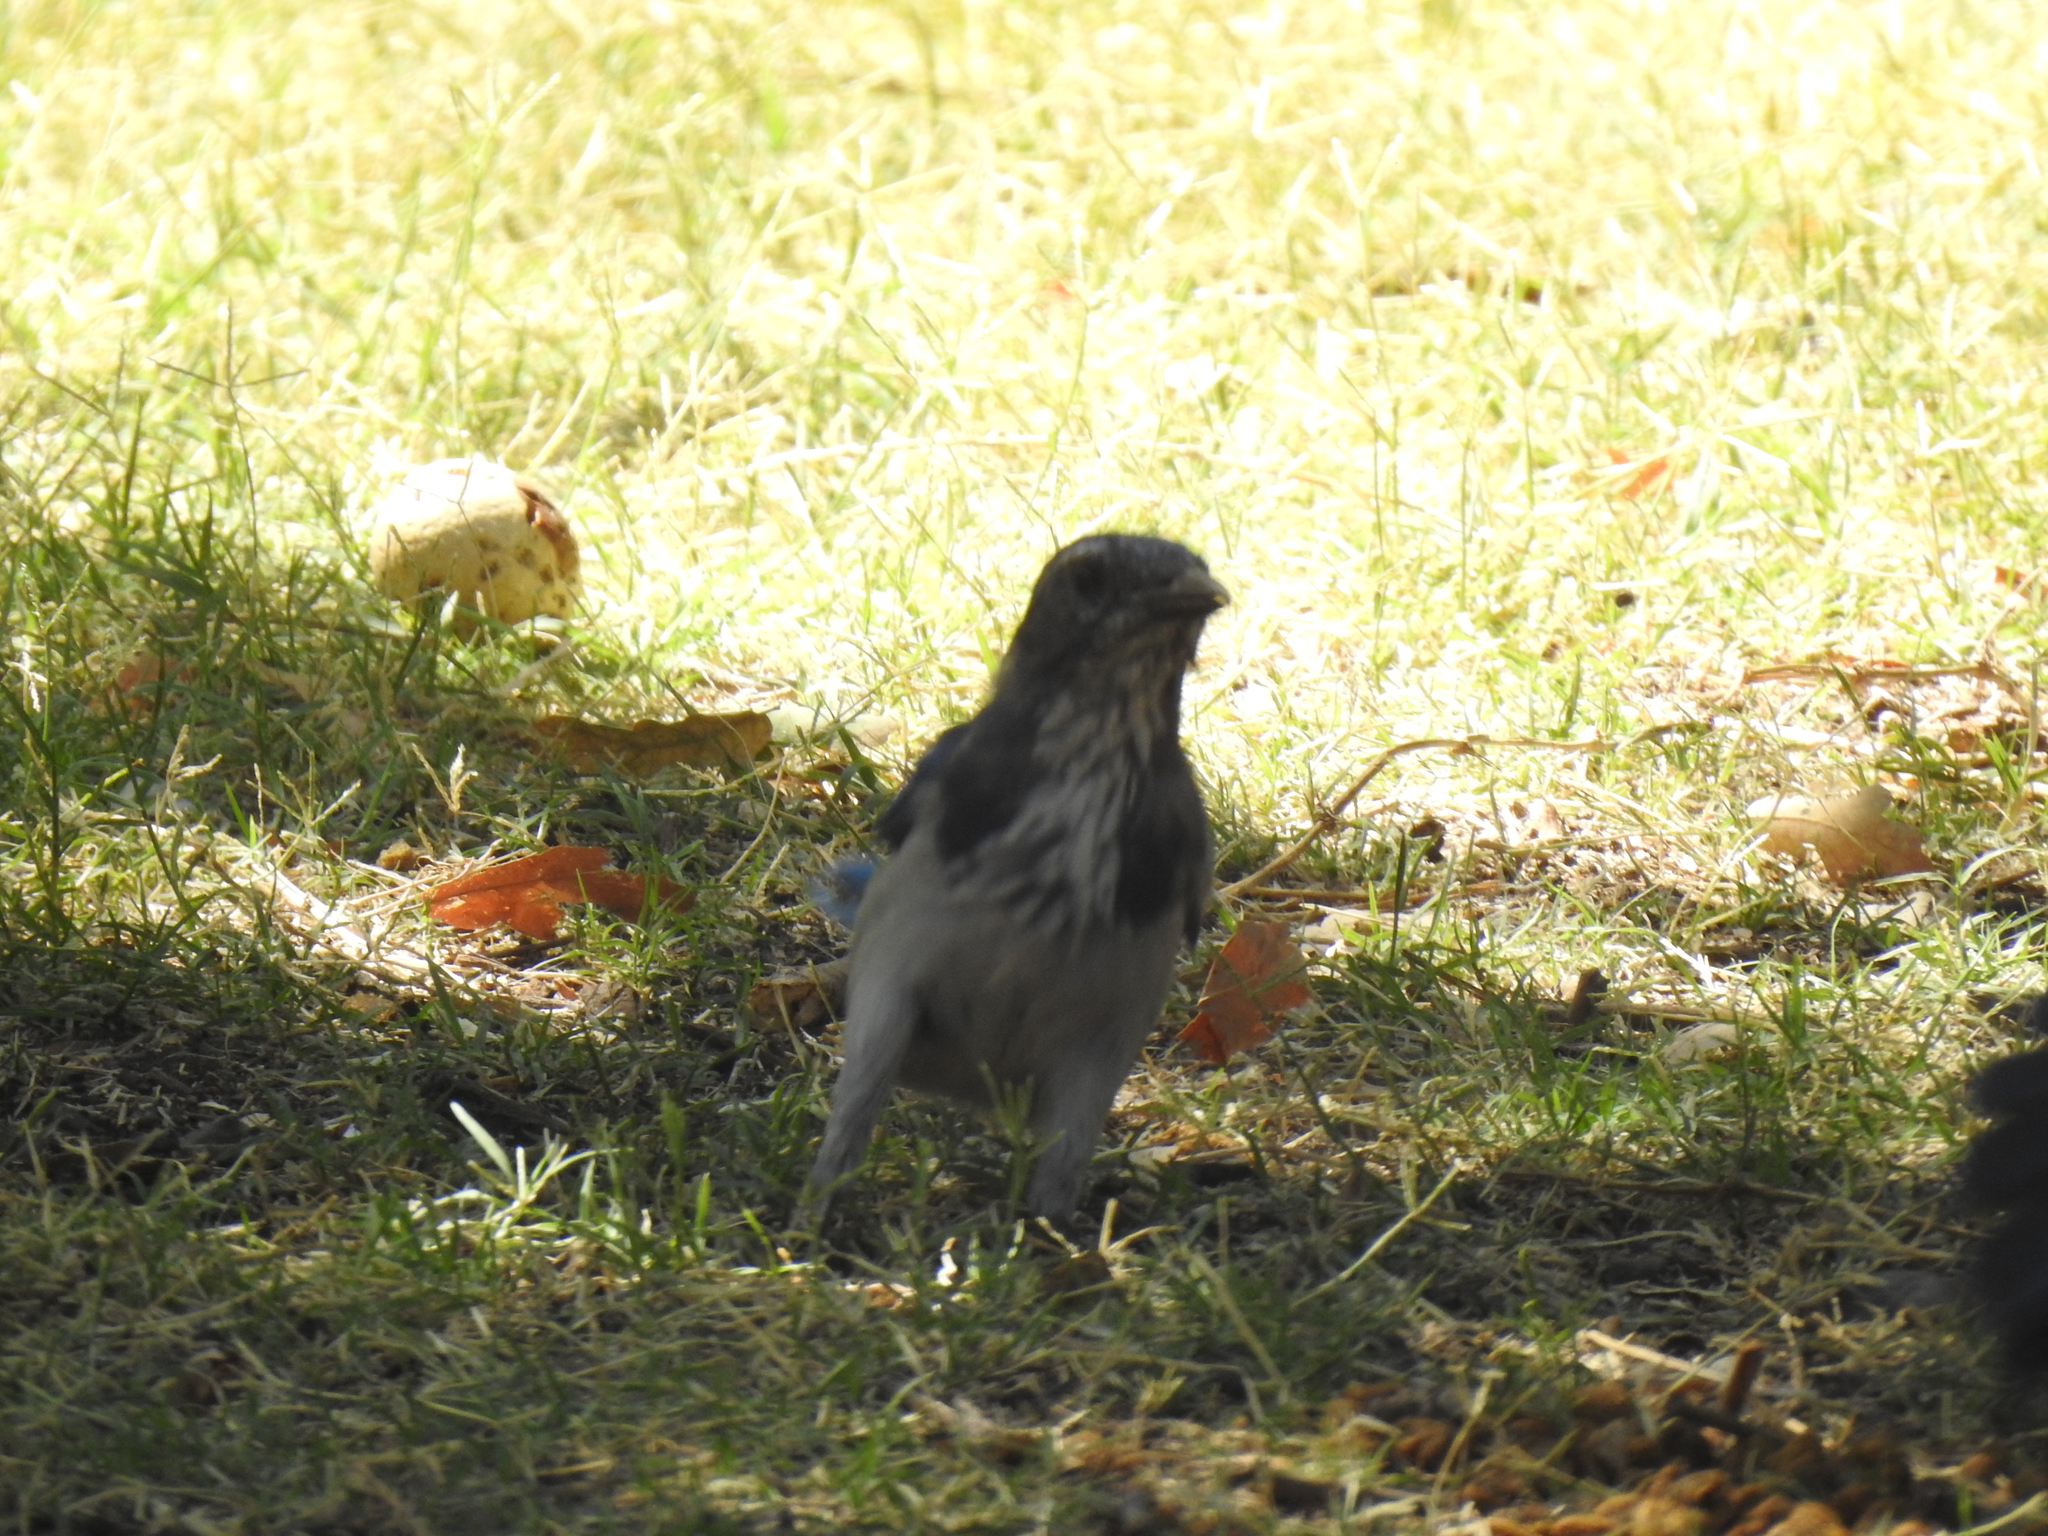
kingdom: Animalia
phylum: Chordata
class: Aves
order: Passeriformes
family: Corvidae
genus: Aphelocoma
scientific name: Aphelocoma californica
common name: California scrub-jay
